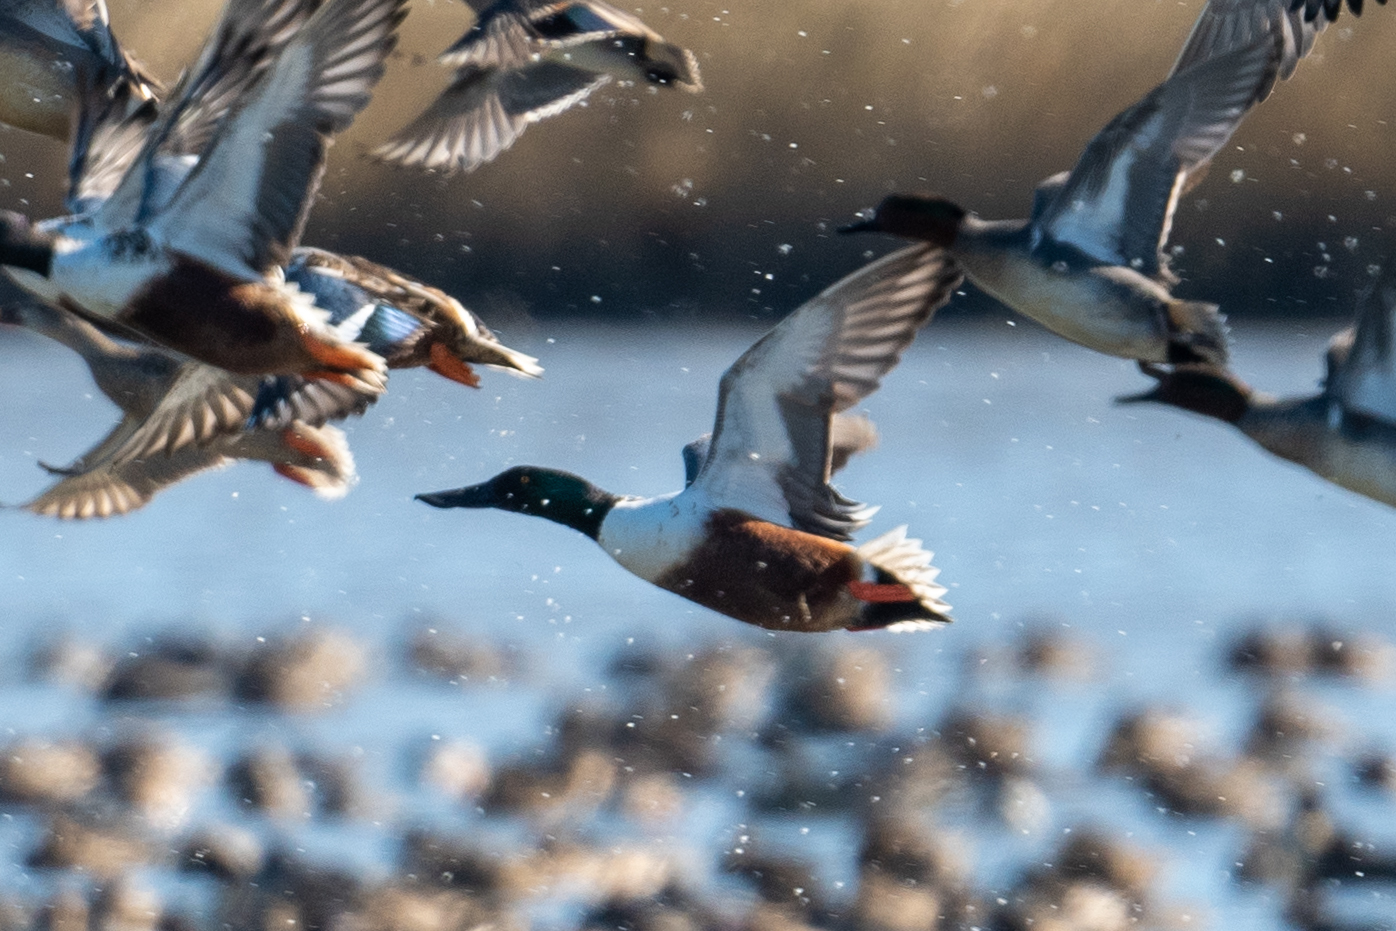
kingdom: Animalia
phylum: Chordata
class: Aves
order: Anseriformes
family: Anatidae
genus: Spatula
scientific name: Spatula clypeata
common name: Northern shoveler
